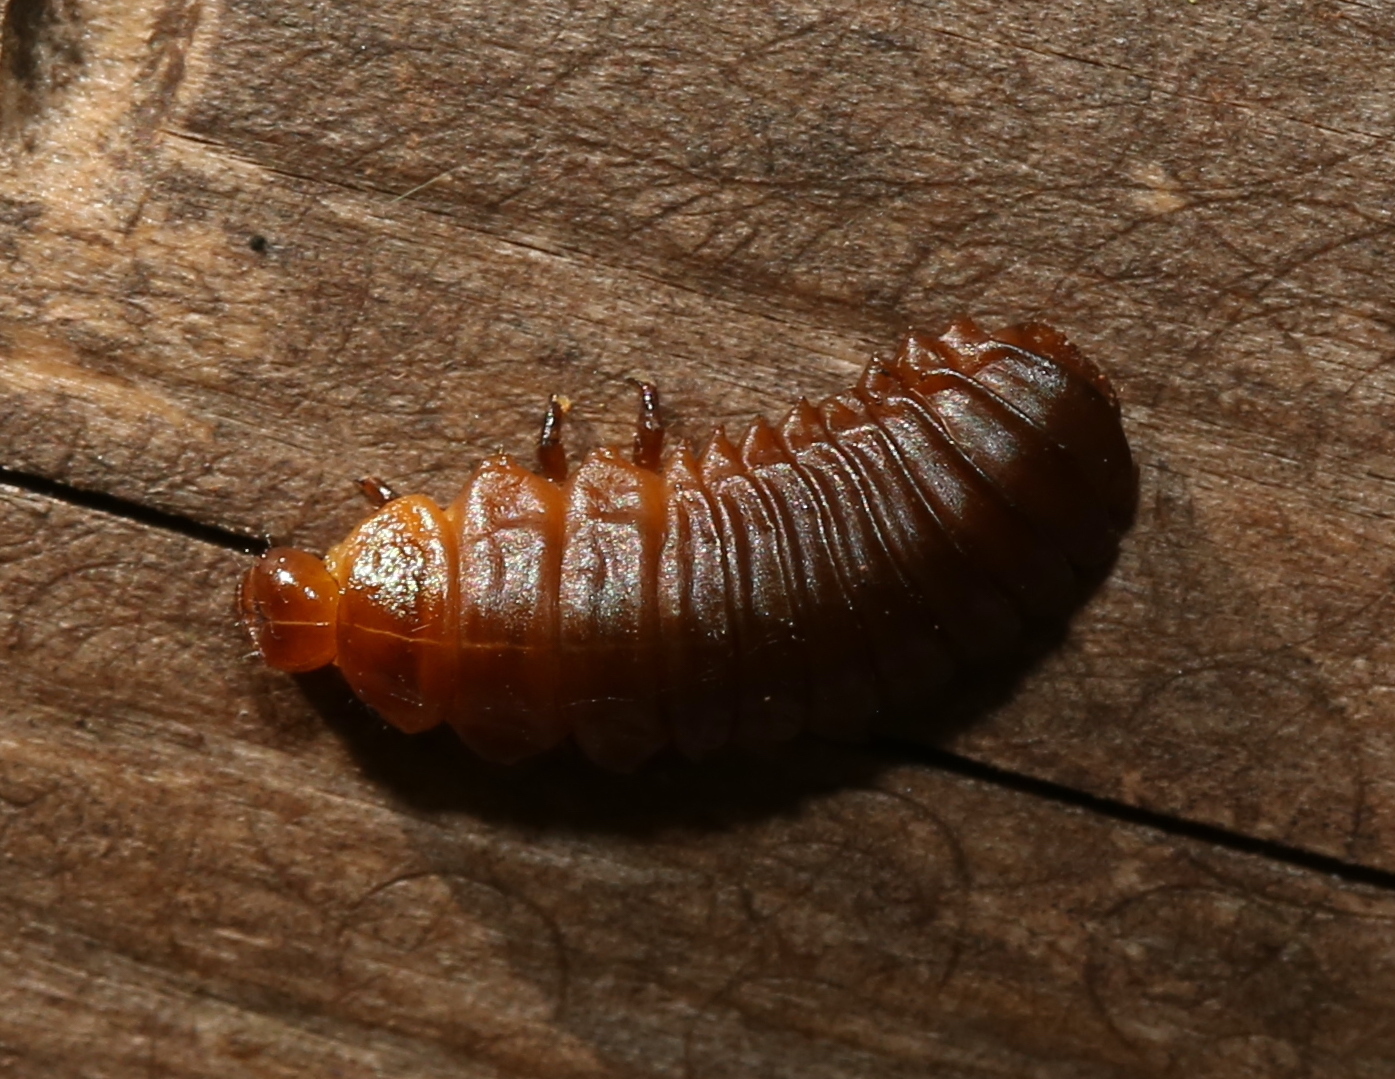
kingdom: Animalia
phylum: Arthropoda
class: Insecta
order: Coleoptera
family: Chrysomelidae
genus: Monocesta
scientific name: Monocesta coryli
